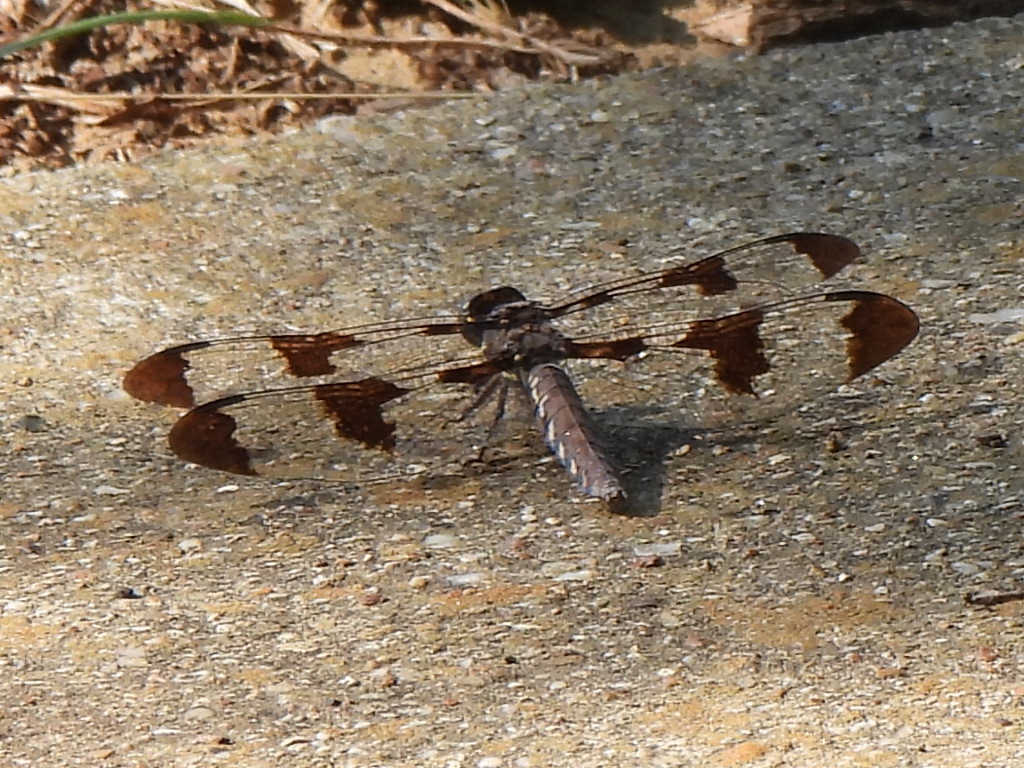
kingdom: Animalia
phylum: Arthropoda
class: Insecta
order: Odonata
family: Libellulidae
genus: Plathemis
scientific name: Plathemis lydia
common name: Common whitetail
